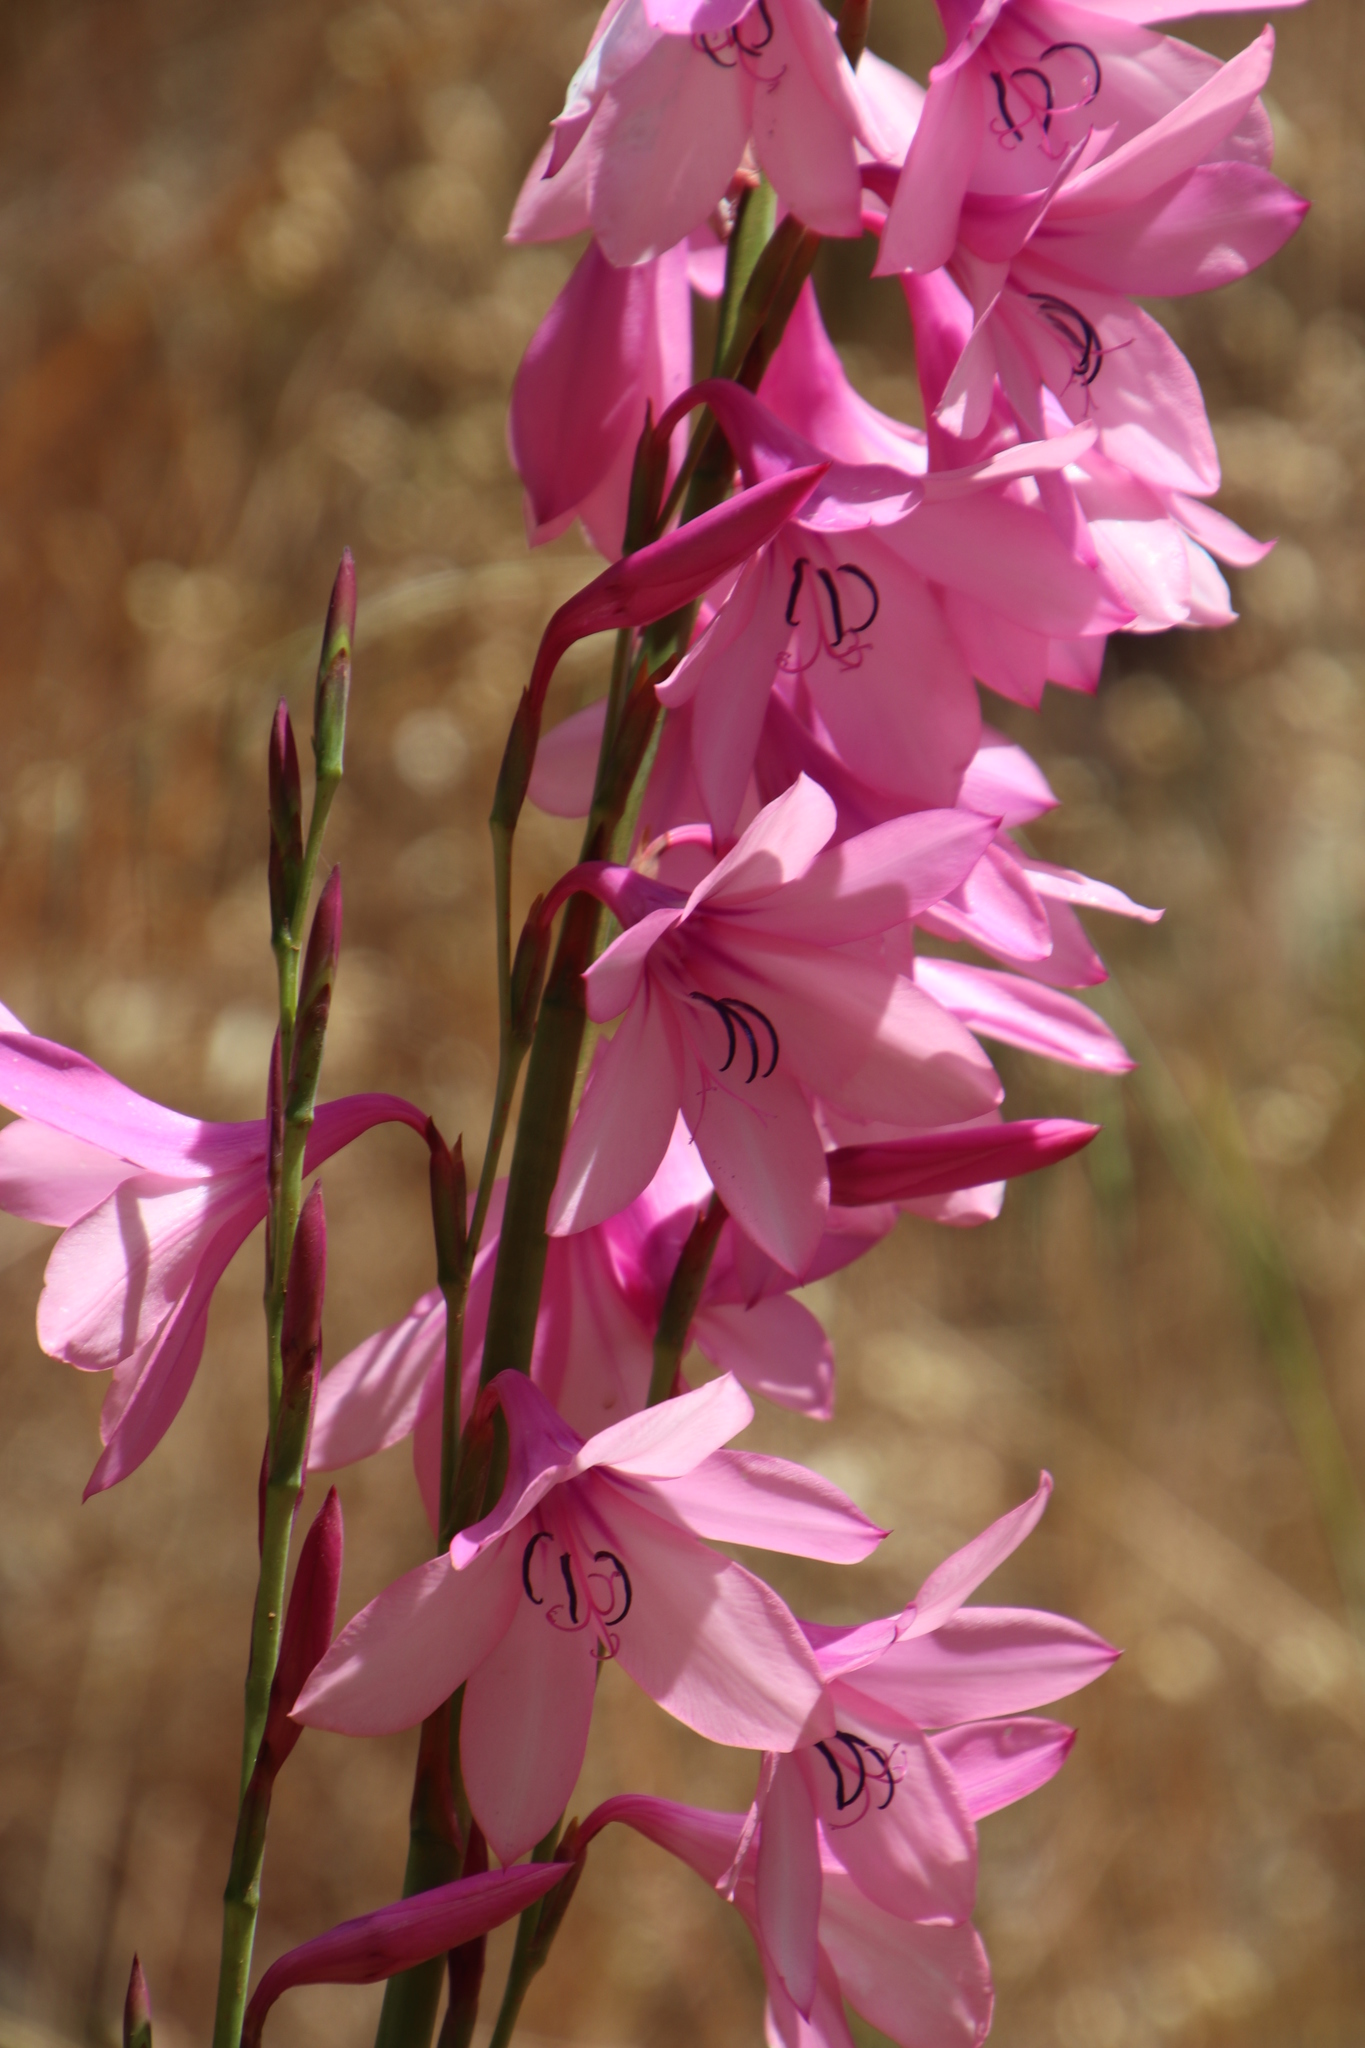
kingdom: Plantae
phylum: Tracheophyta
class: Liliopsida
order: Asparagales
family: Iridaceae
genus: Watsonia
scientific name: Watsonia borbonica
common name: Bugle-lily
